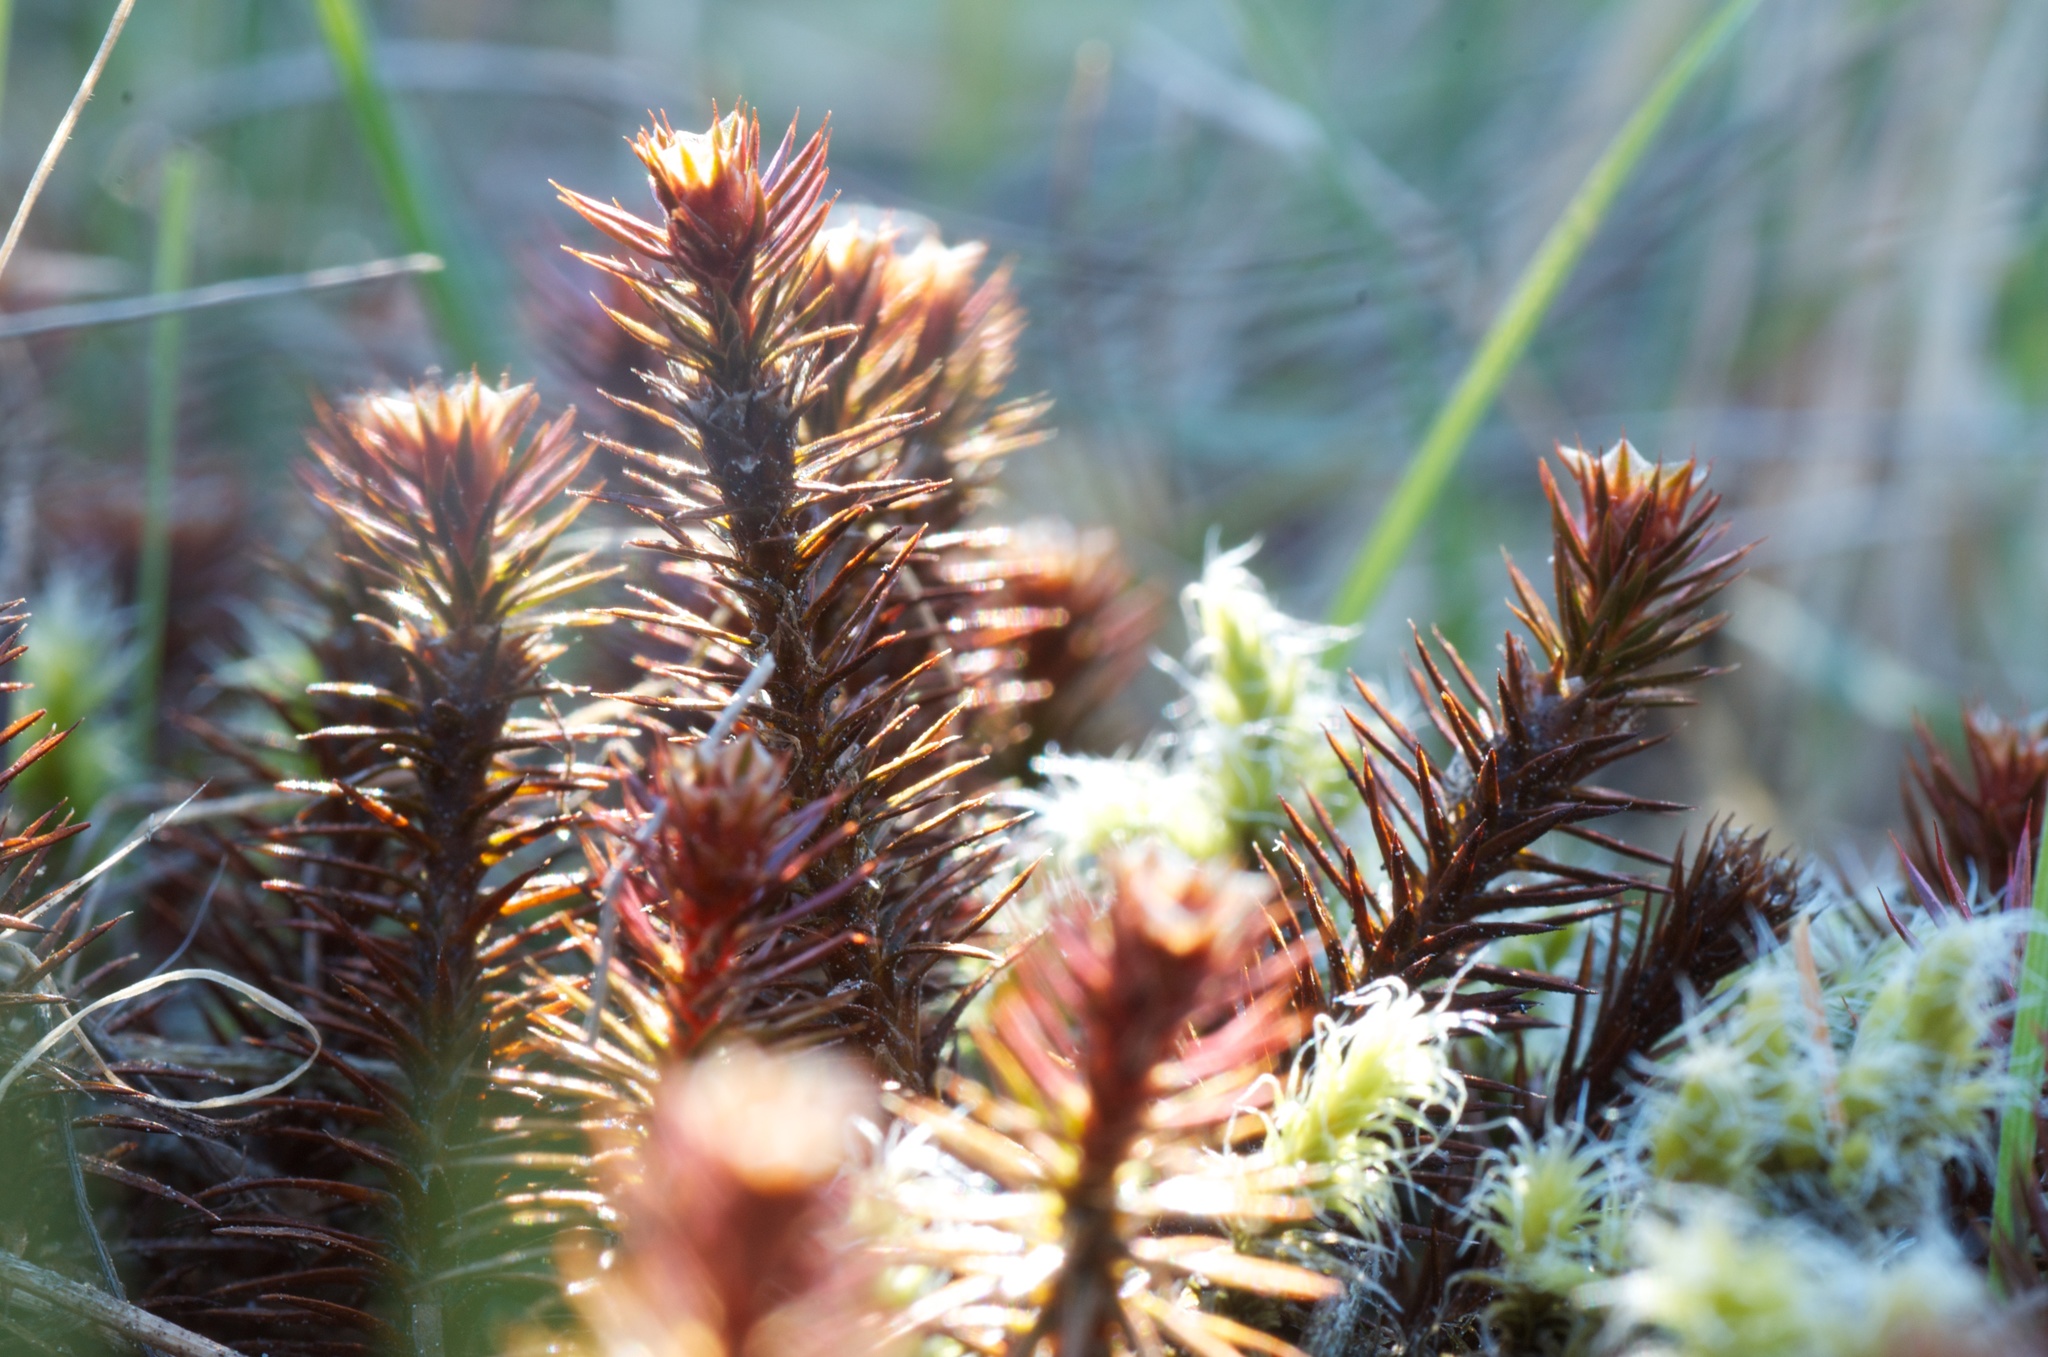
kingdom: Plantae
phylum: Bryophyta
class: Polytrichopsida
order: Polytrichales
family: Polytrichaceae
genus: Polytrichum
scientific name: Polytrichum juniperinum
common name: Juniper haircap moss
